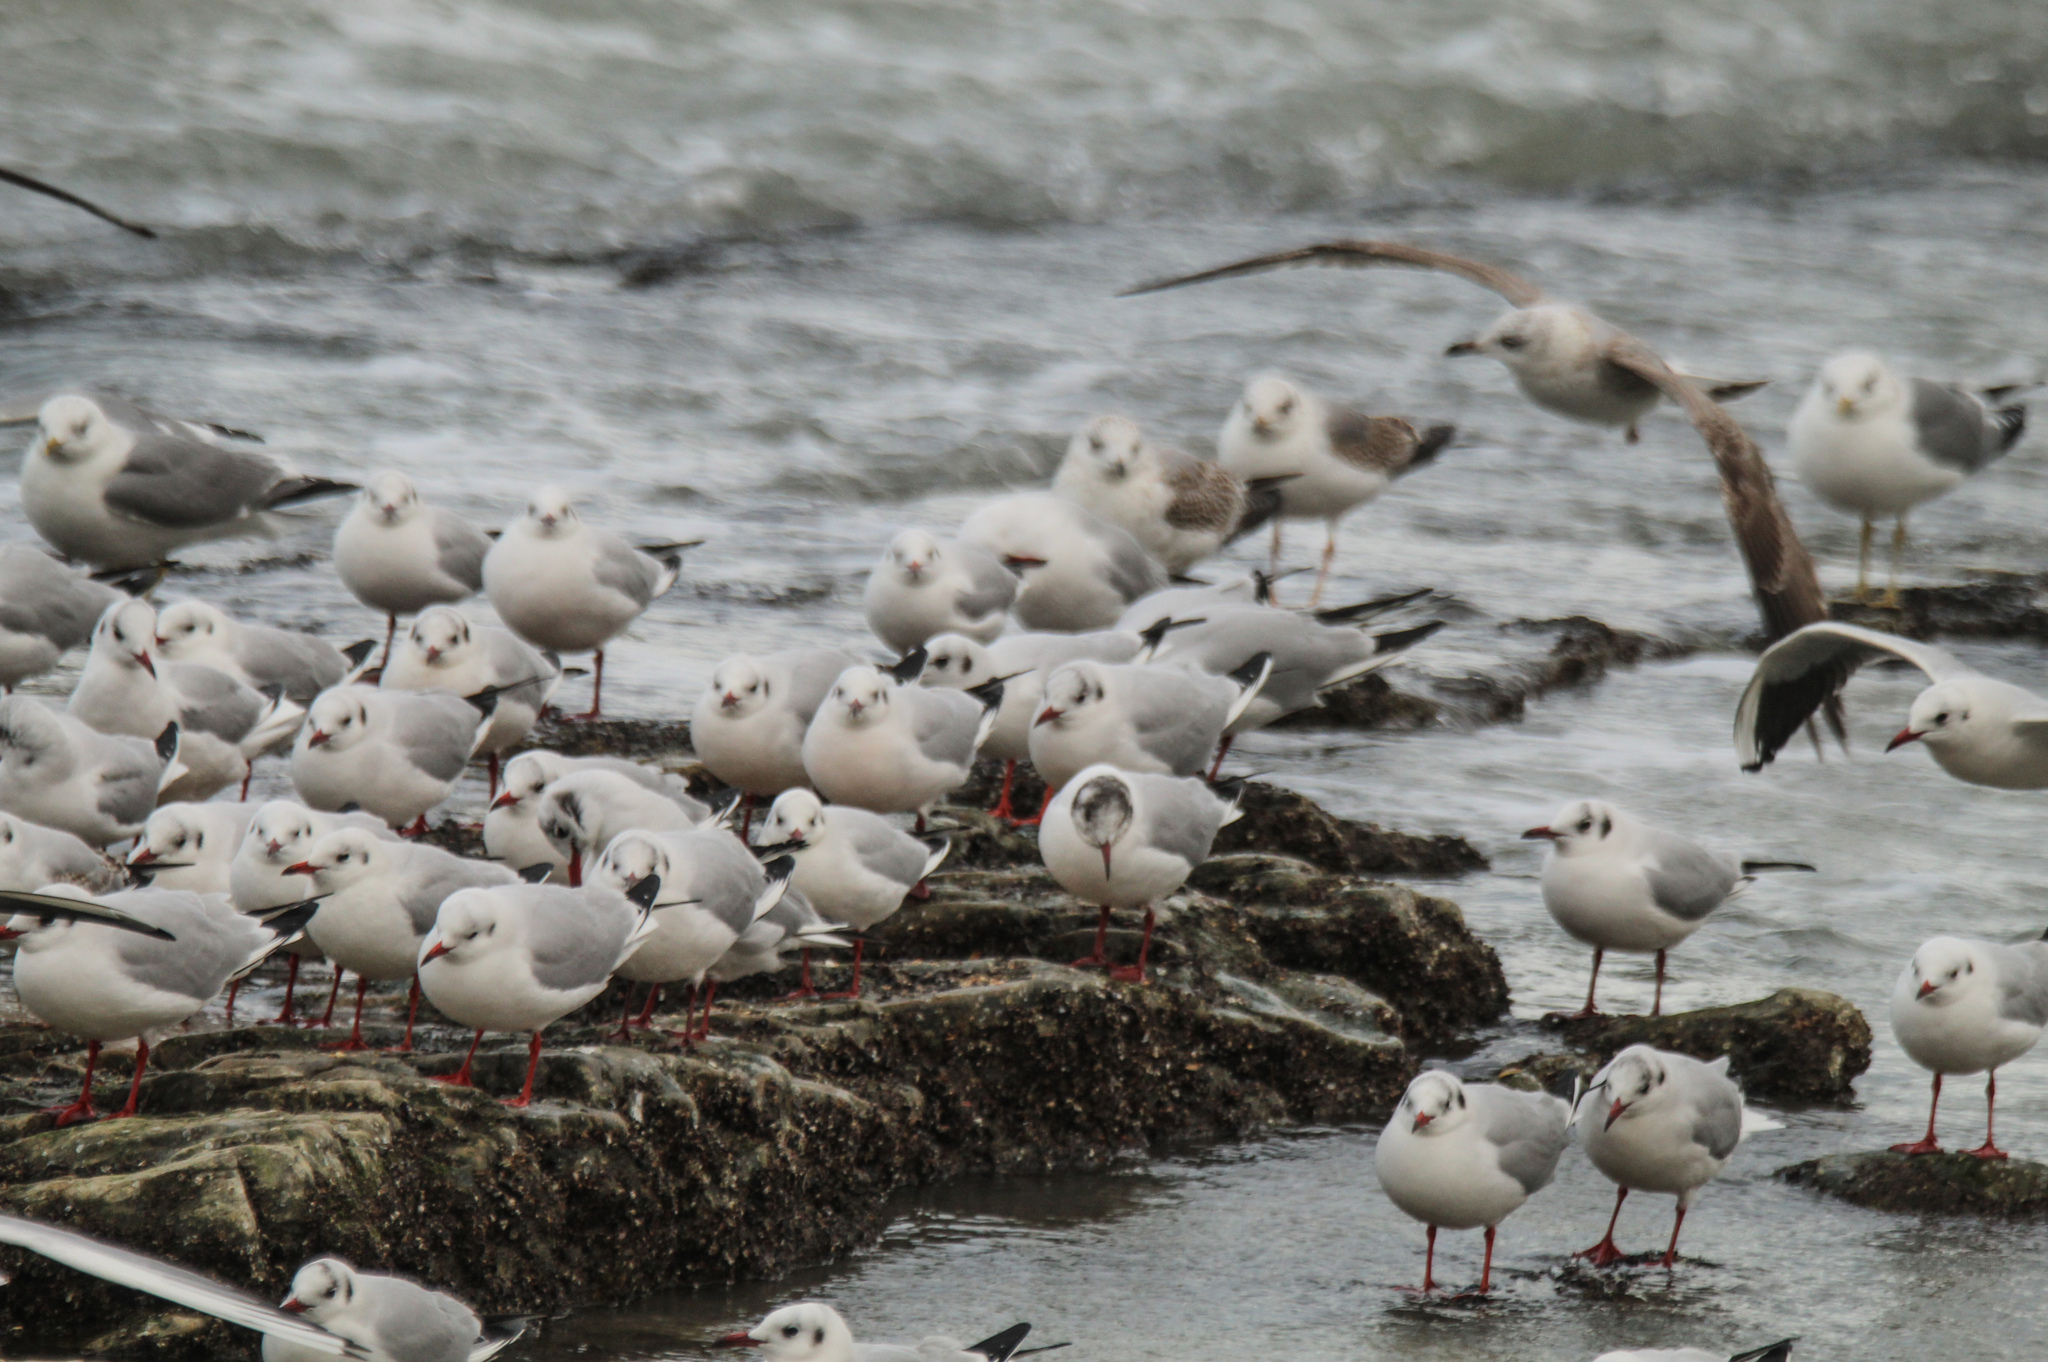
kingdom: Animalia
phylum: Chordata
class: Aves
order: Charadriiformes
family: Laridae
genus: Chroicocephalus
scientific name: Chroicocephalus ridibundus
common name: Black-headed gull
